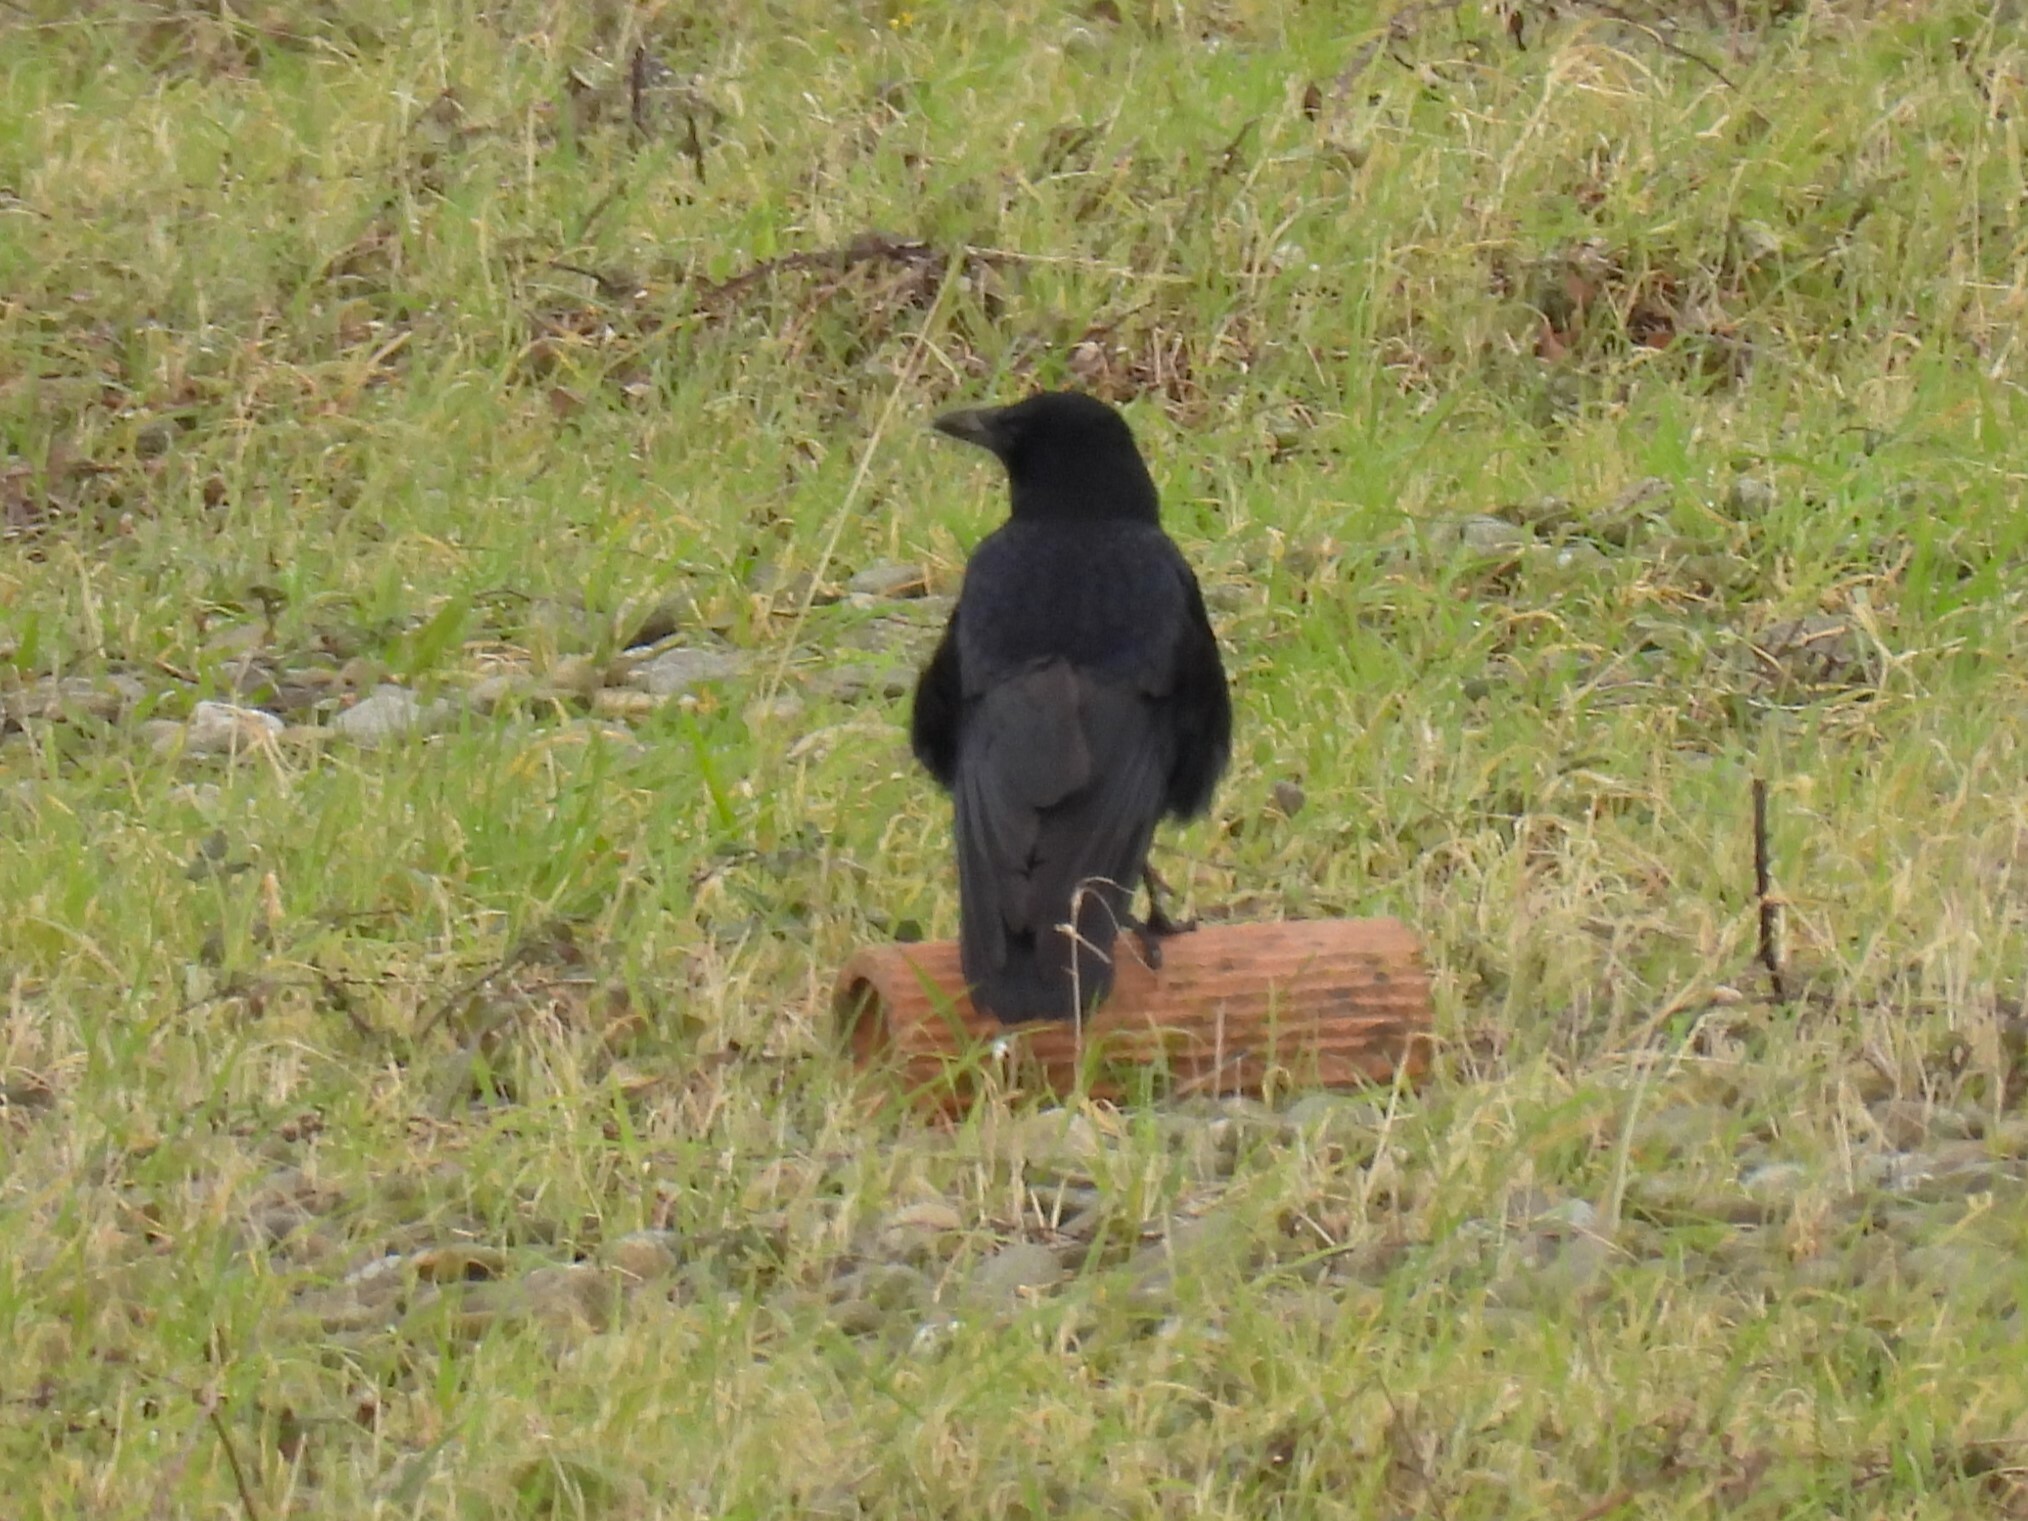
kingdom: Animalia
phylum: Chordata
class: Aves
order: Passeriformes
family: Corvidae
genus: Corvus
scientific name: Corvus corone
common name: Carrion crow
